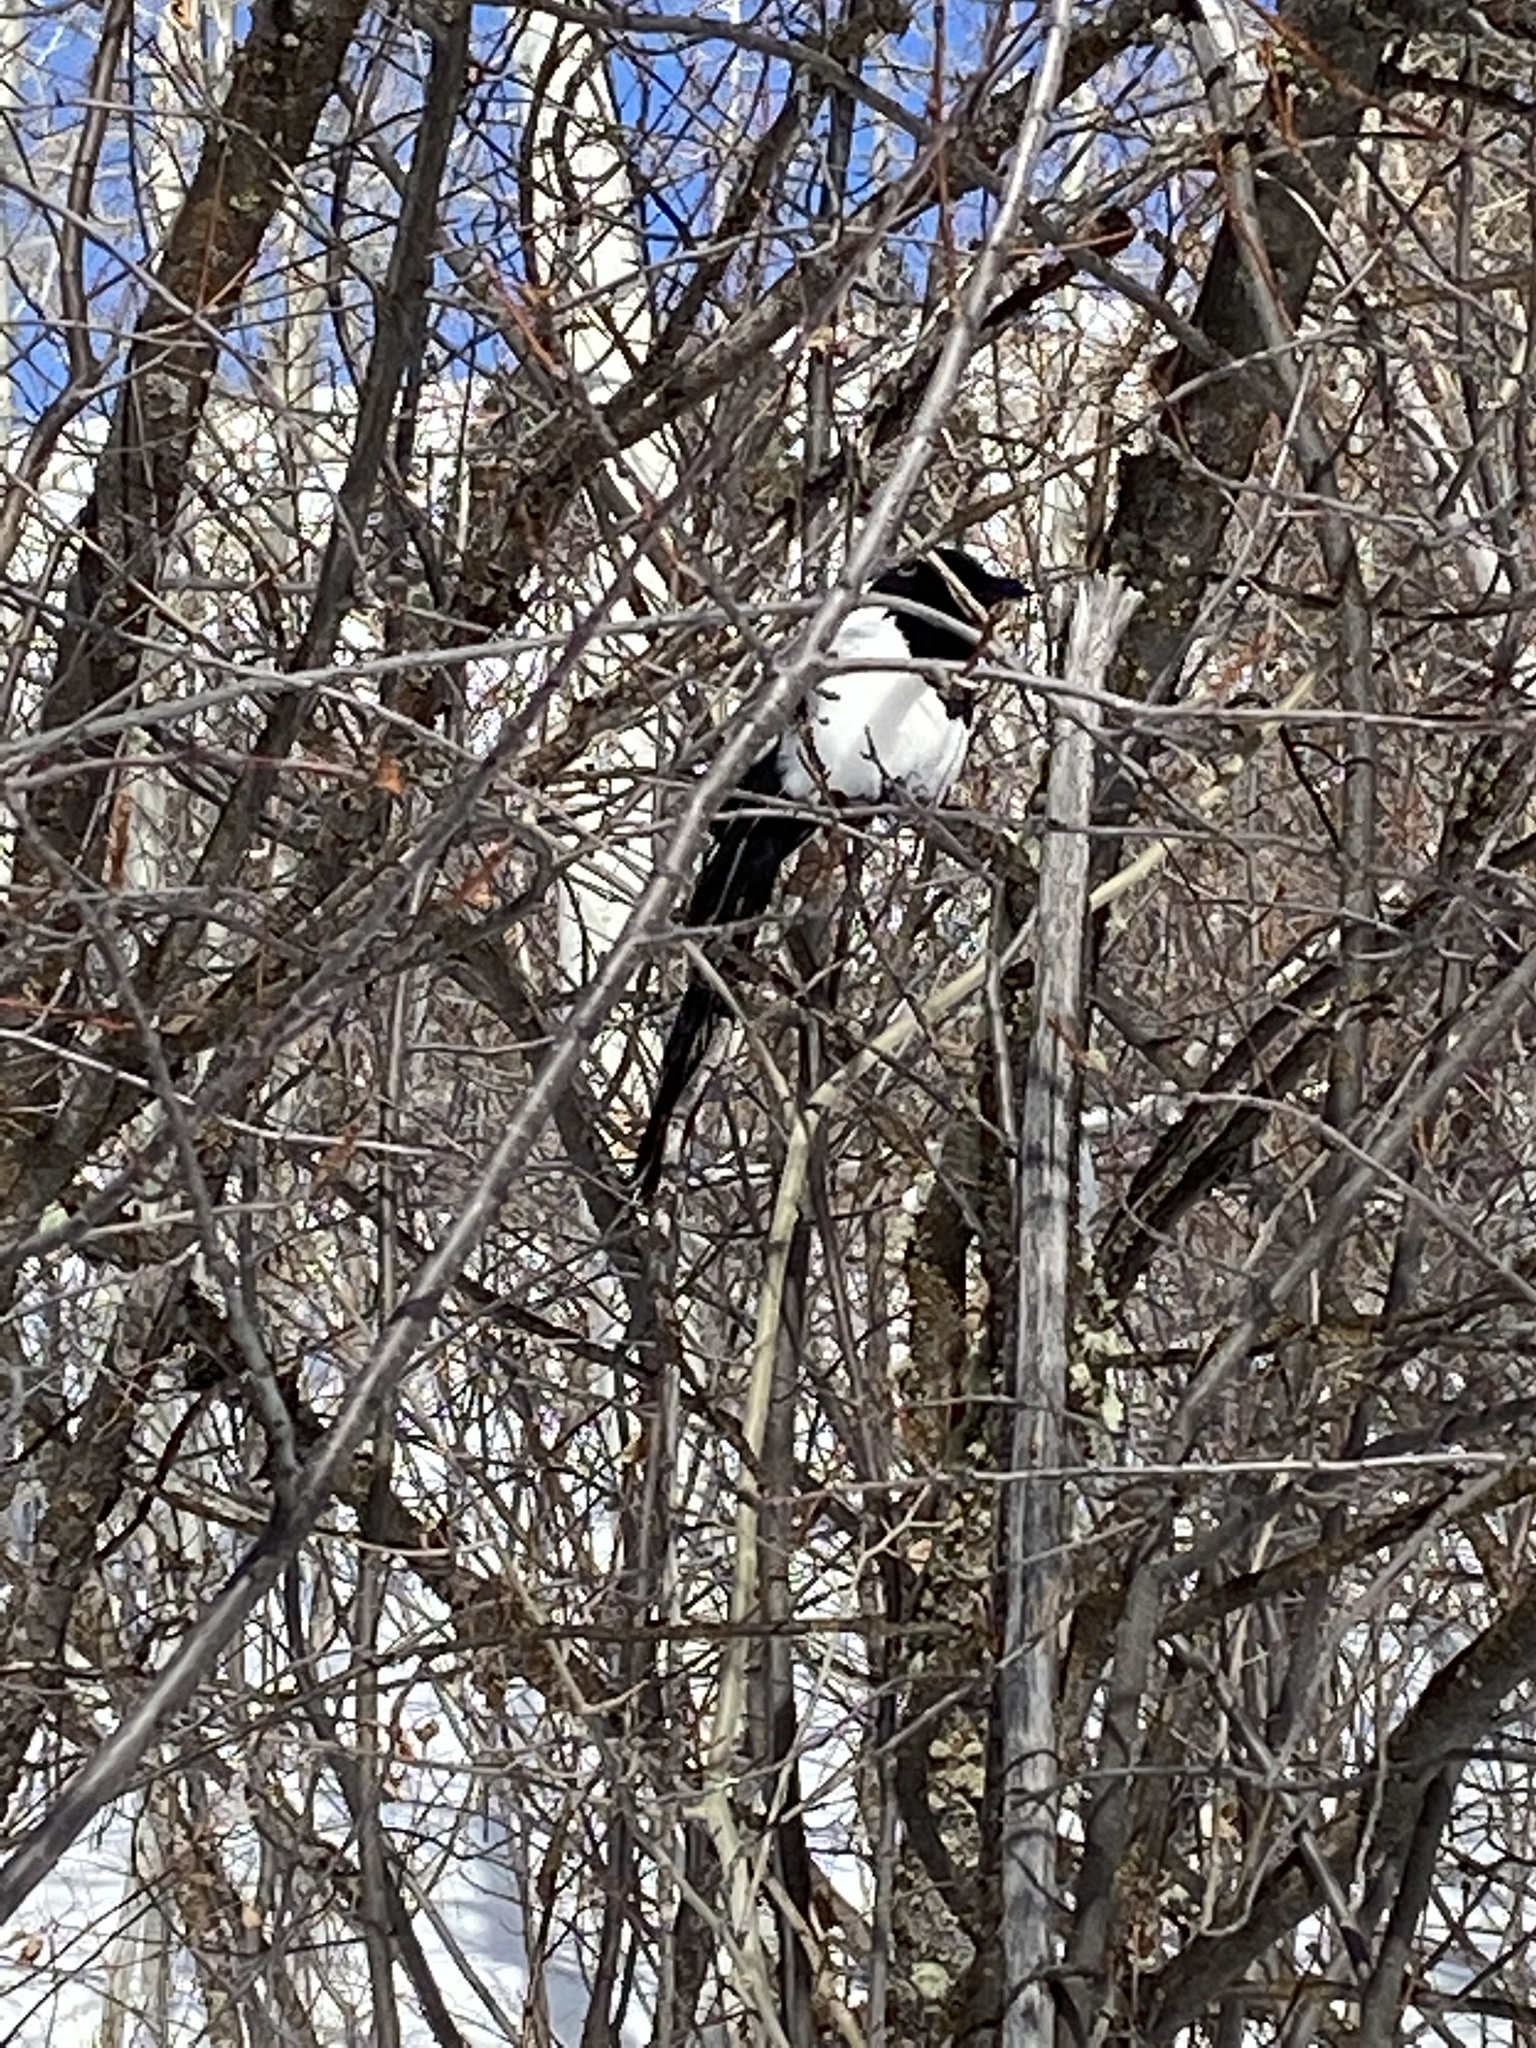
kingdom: Animalia
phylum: Chordata
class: Aves
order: Passeriformes
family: Corvidae
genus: Pica
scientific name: Pica hudsonia
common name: Black-billed magpie
